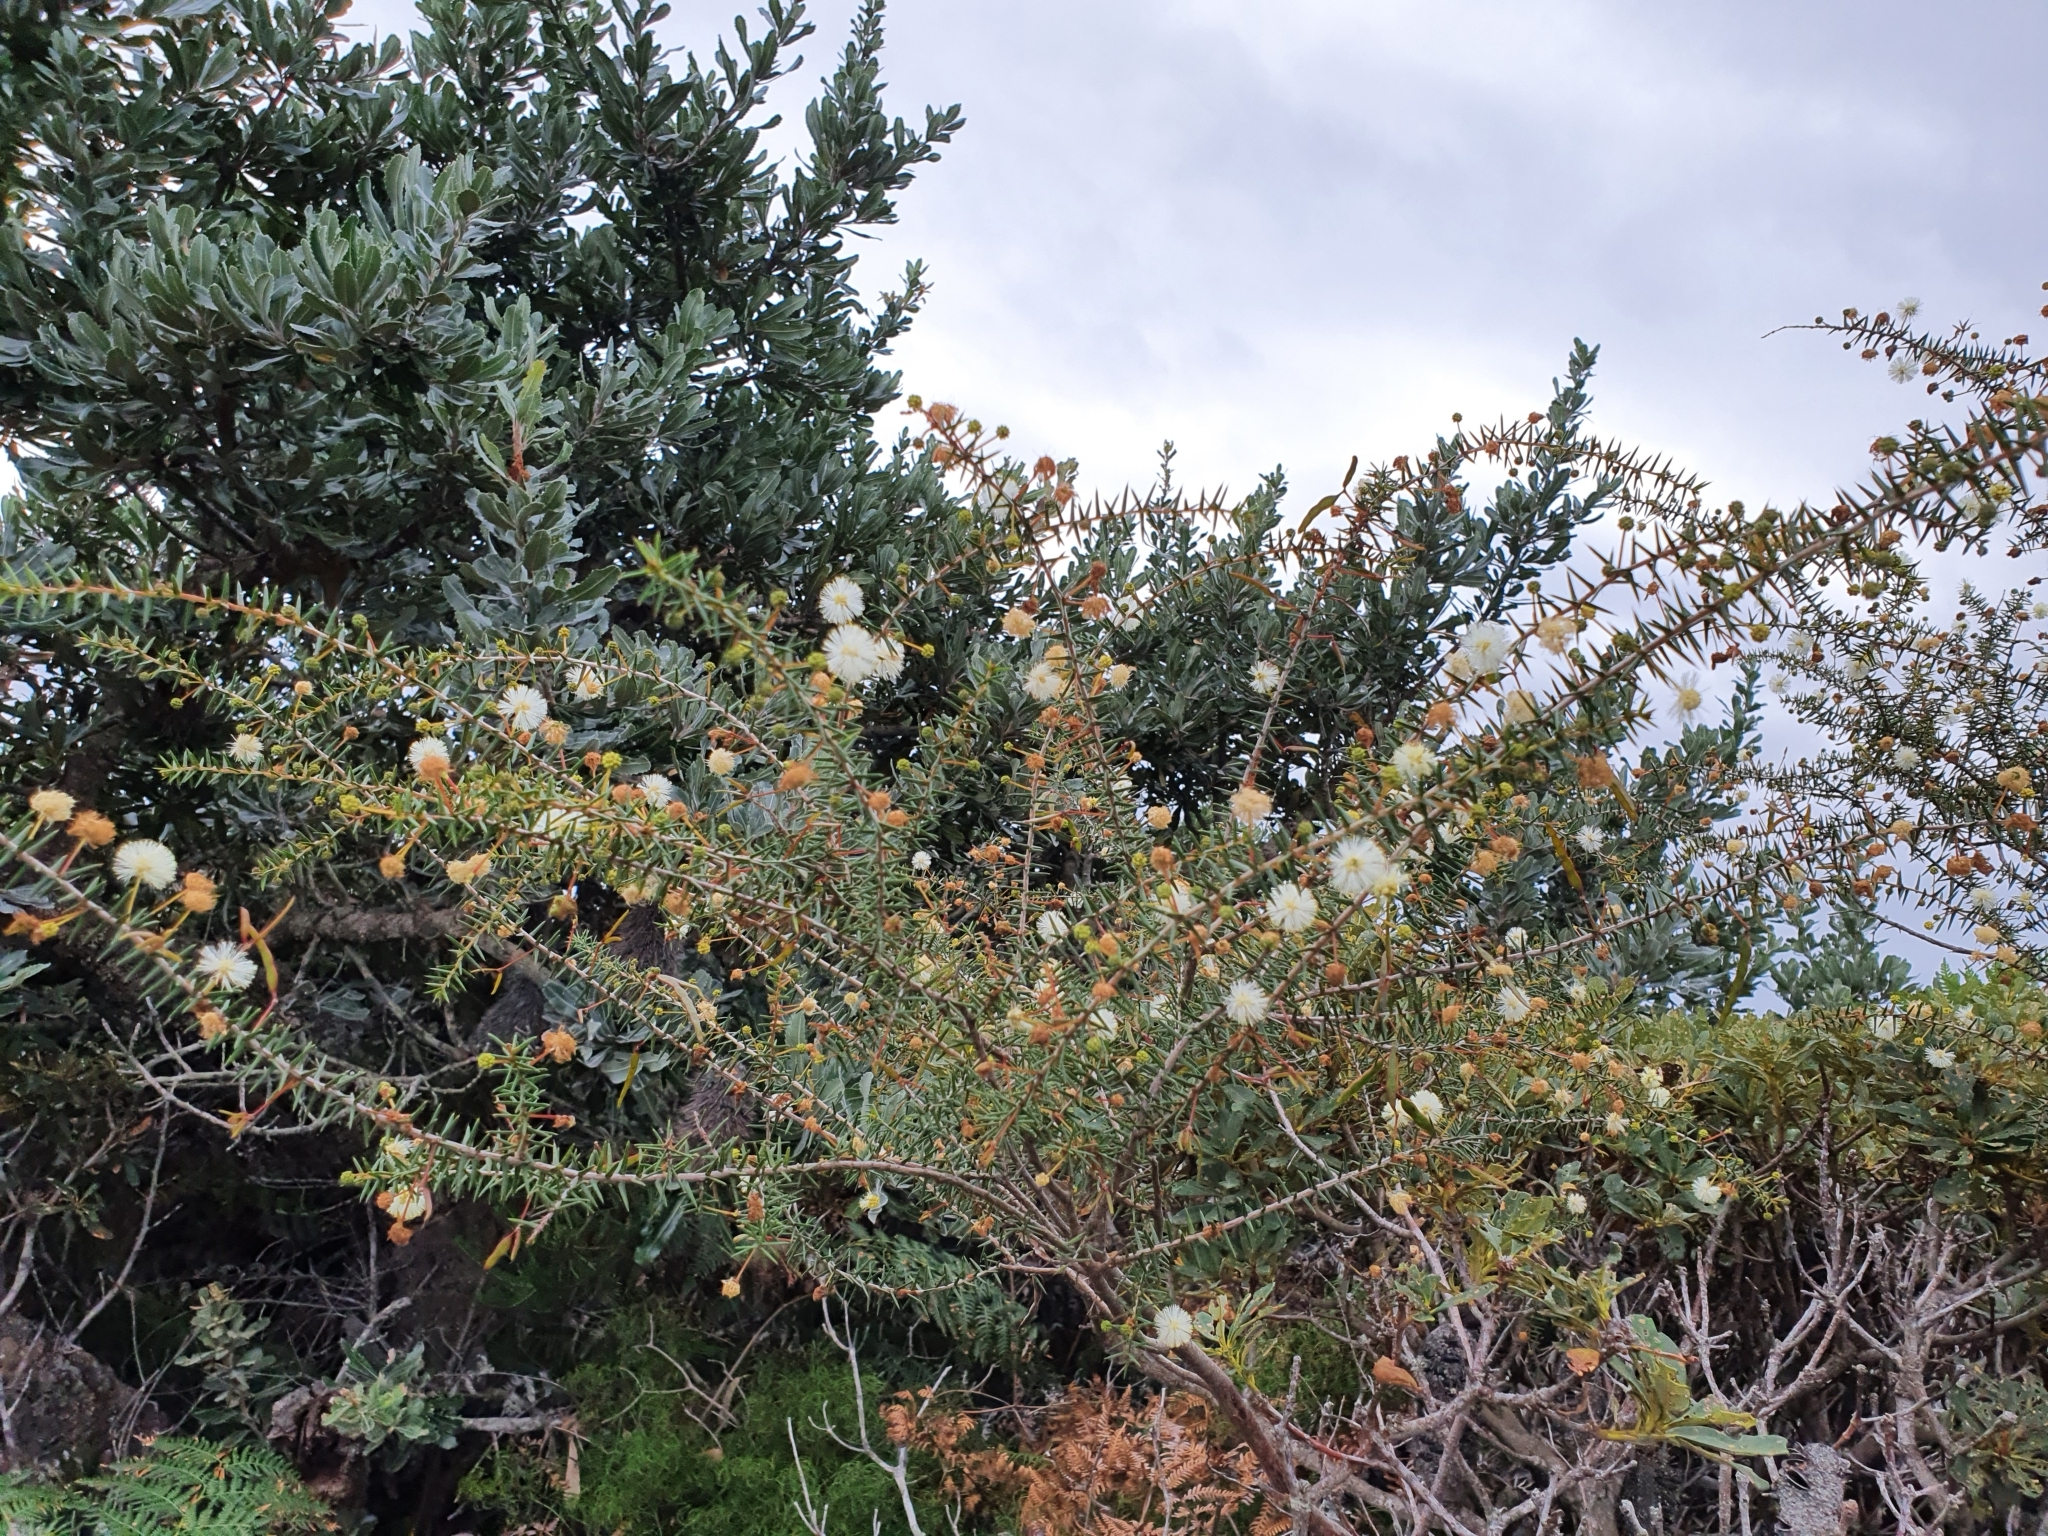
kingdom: Plantae
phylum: Tracheophyta
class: Magnoliopsida
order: Fabales
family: Fabaceae
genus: Acacia
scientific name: Acacia ulicifolia
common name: Juniper wattle
